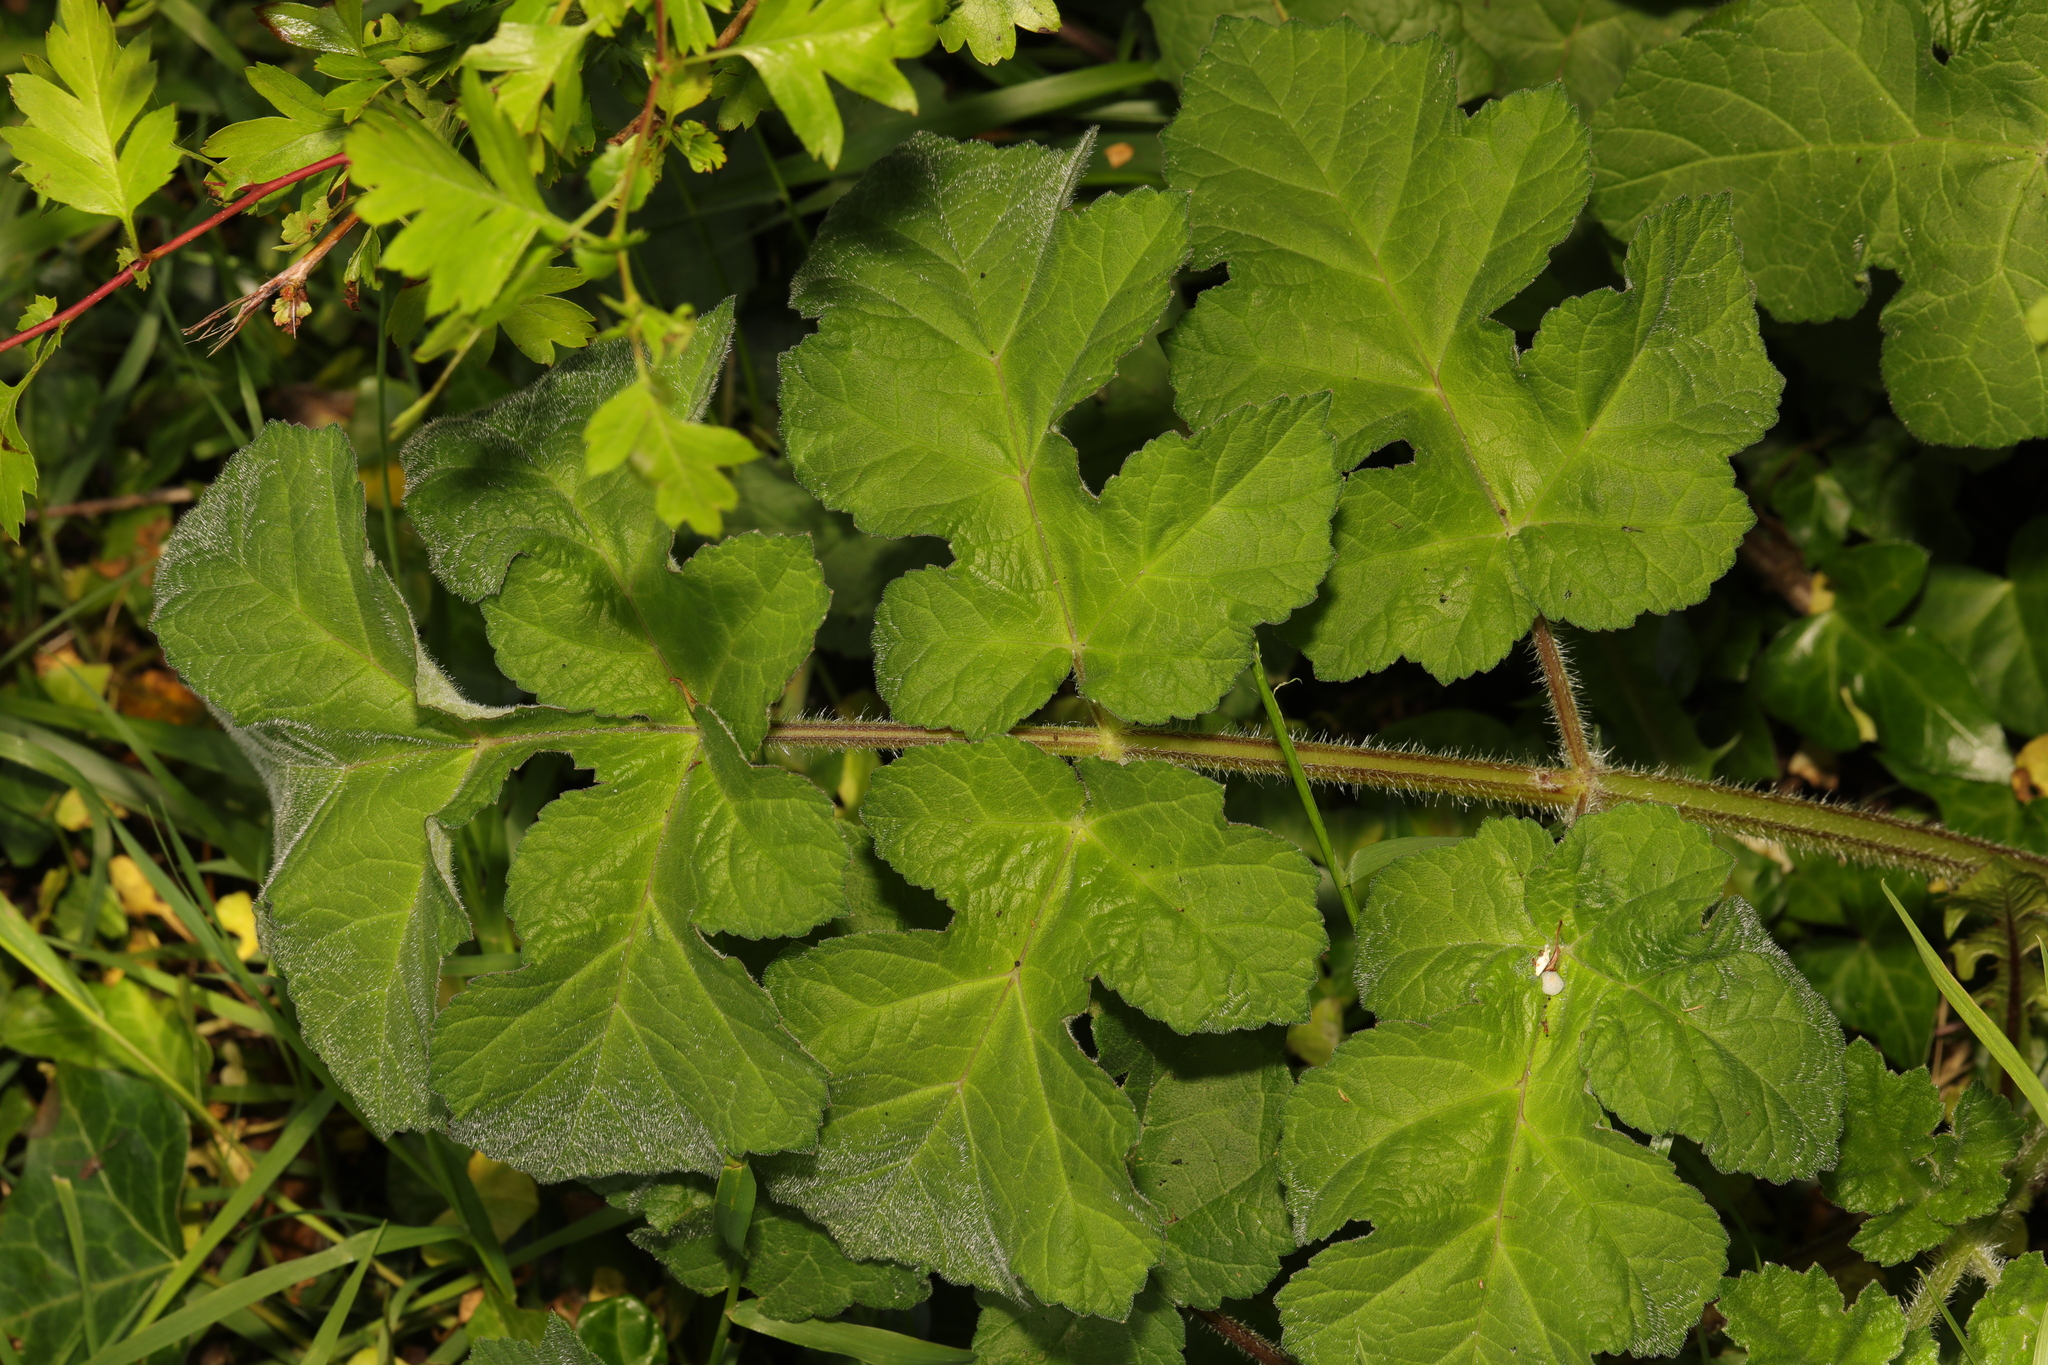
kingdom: Plantae
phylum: Tracheophyta
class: Magnoliopsida
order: Apiales
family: Apiaceae
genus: Heracleum
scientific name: Heracleum sphondylium
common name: Hogweed
